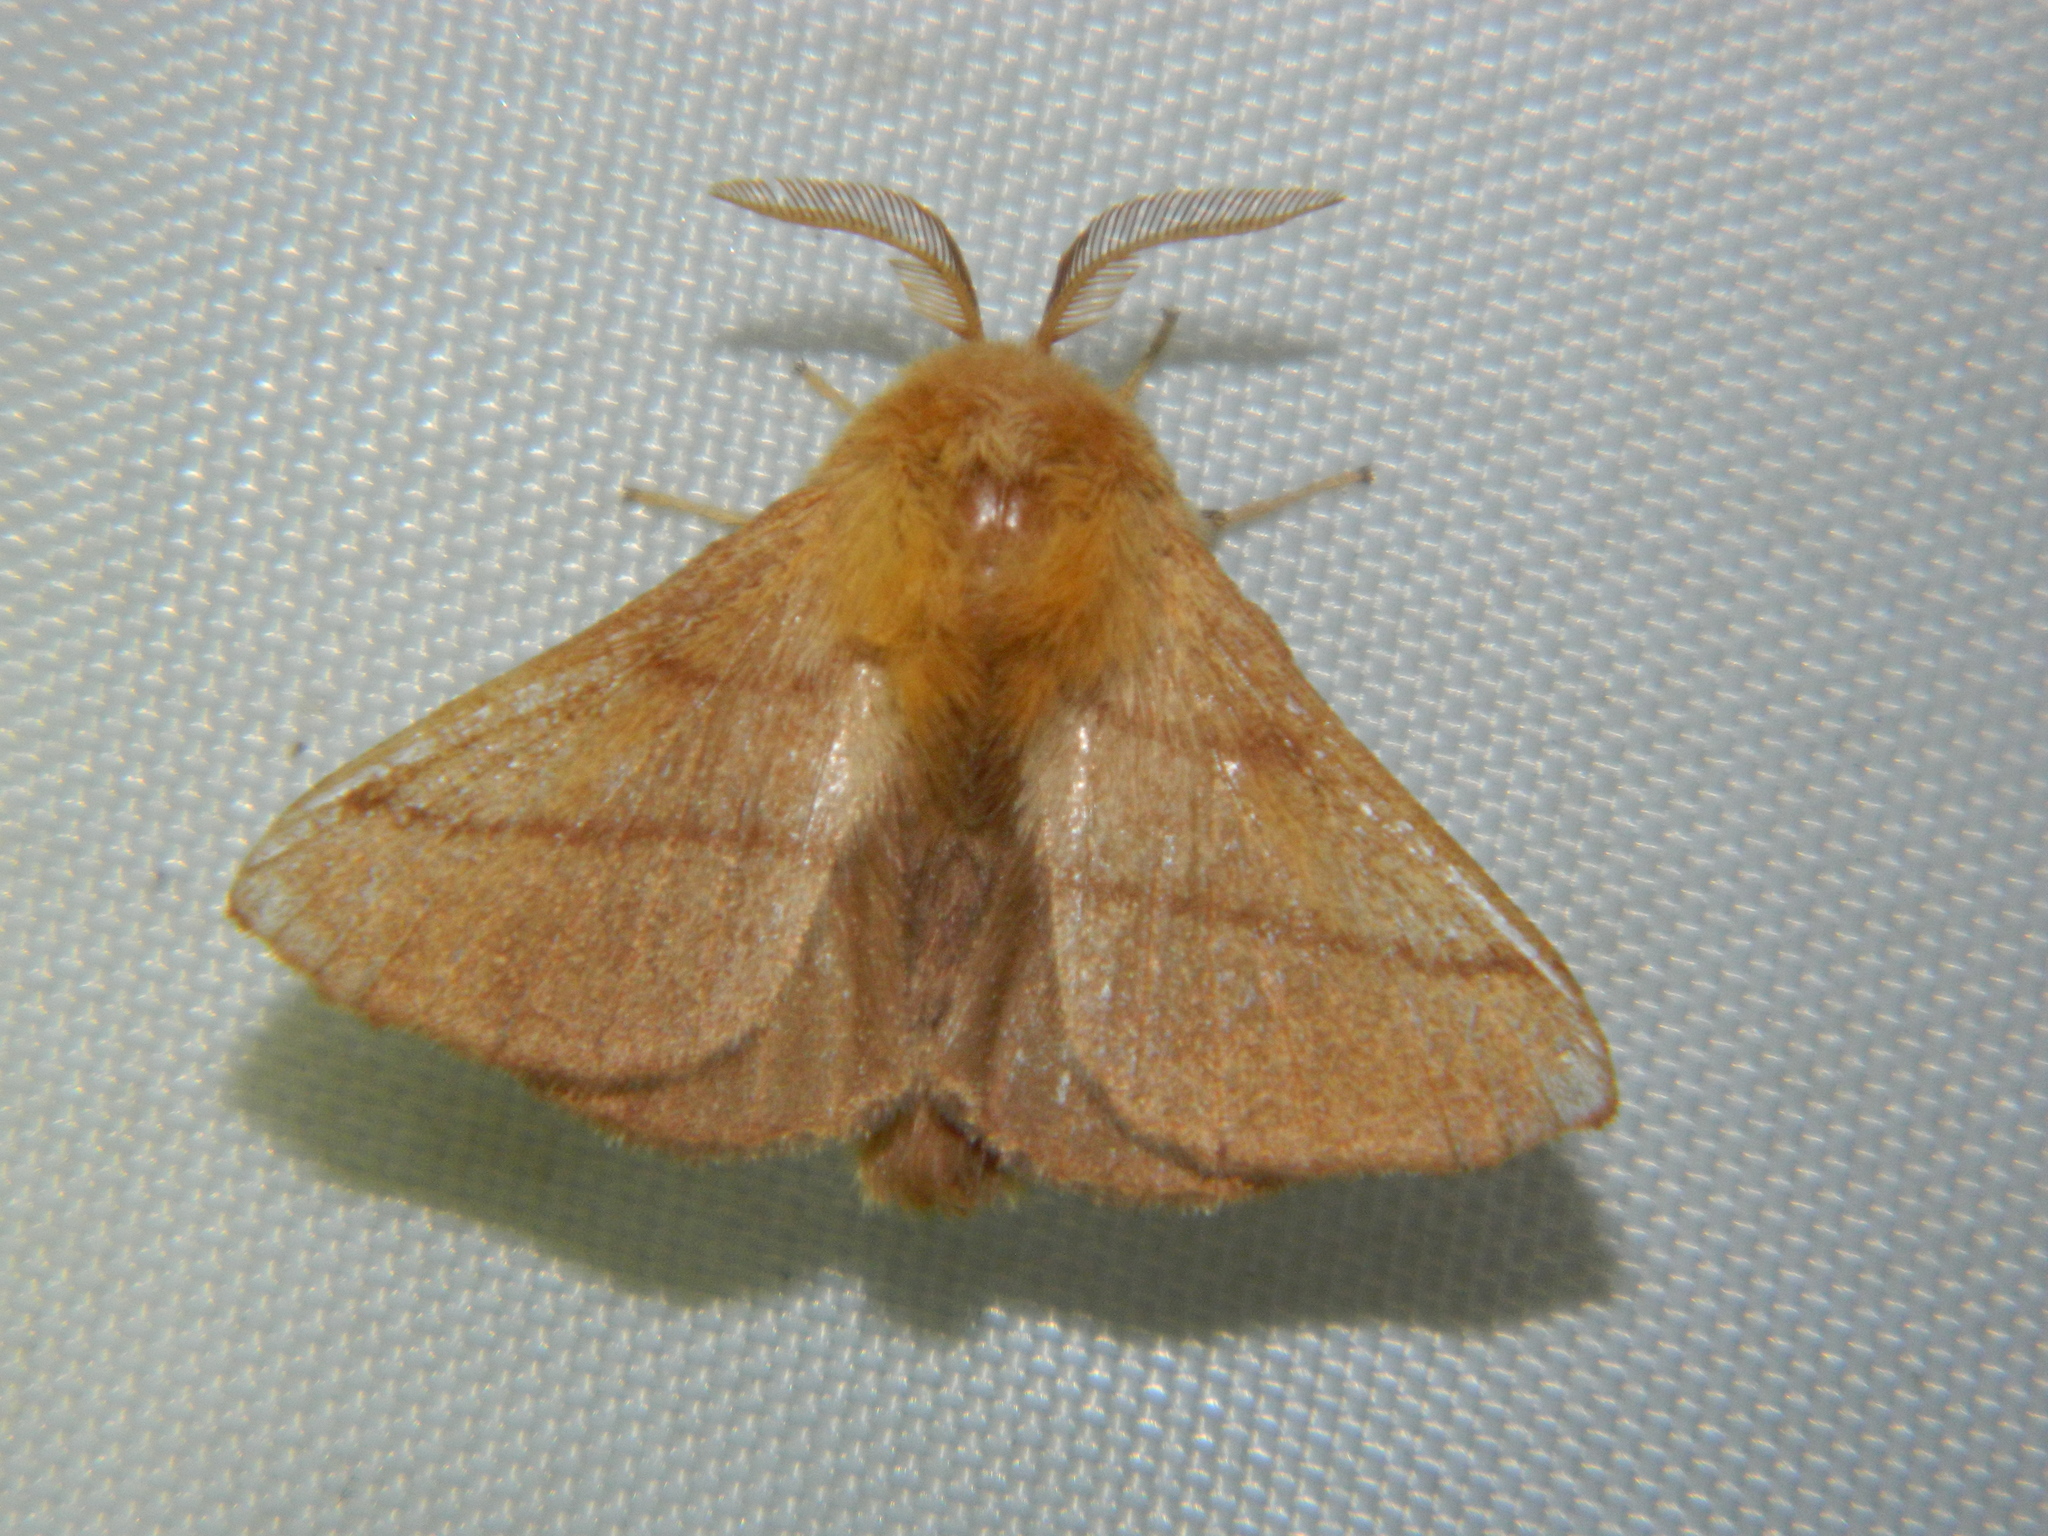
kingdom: Animalia
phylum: Arthropoda
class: Insecta
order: Lepidoptera
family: Lasiocampidae
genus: Malacosoma
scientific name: Malacosoma disstria
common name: Forest tent caterpillar
